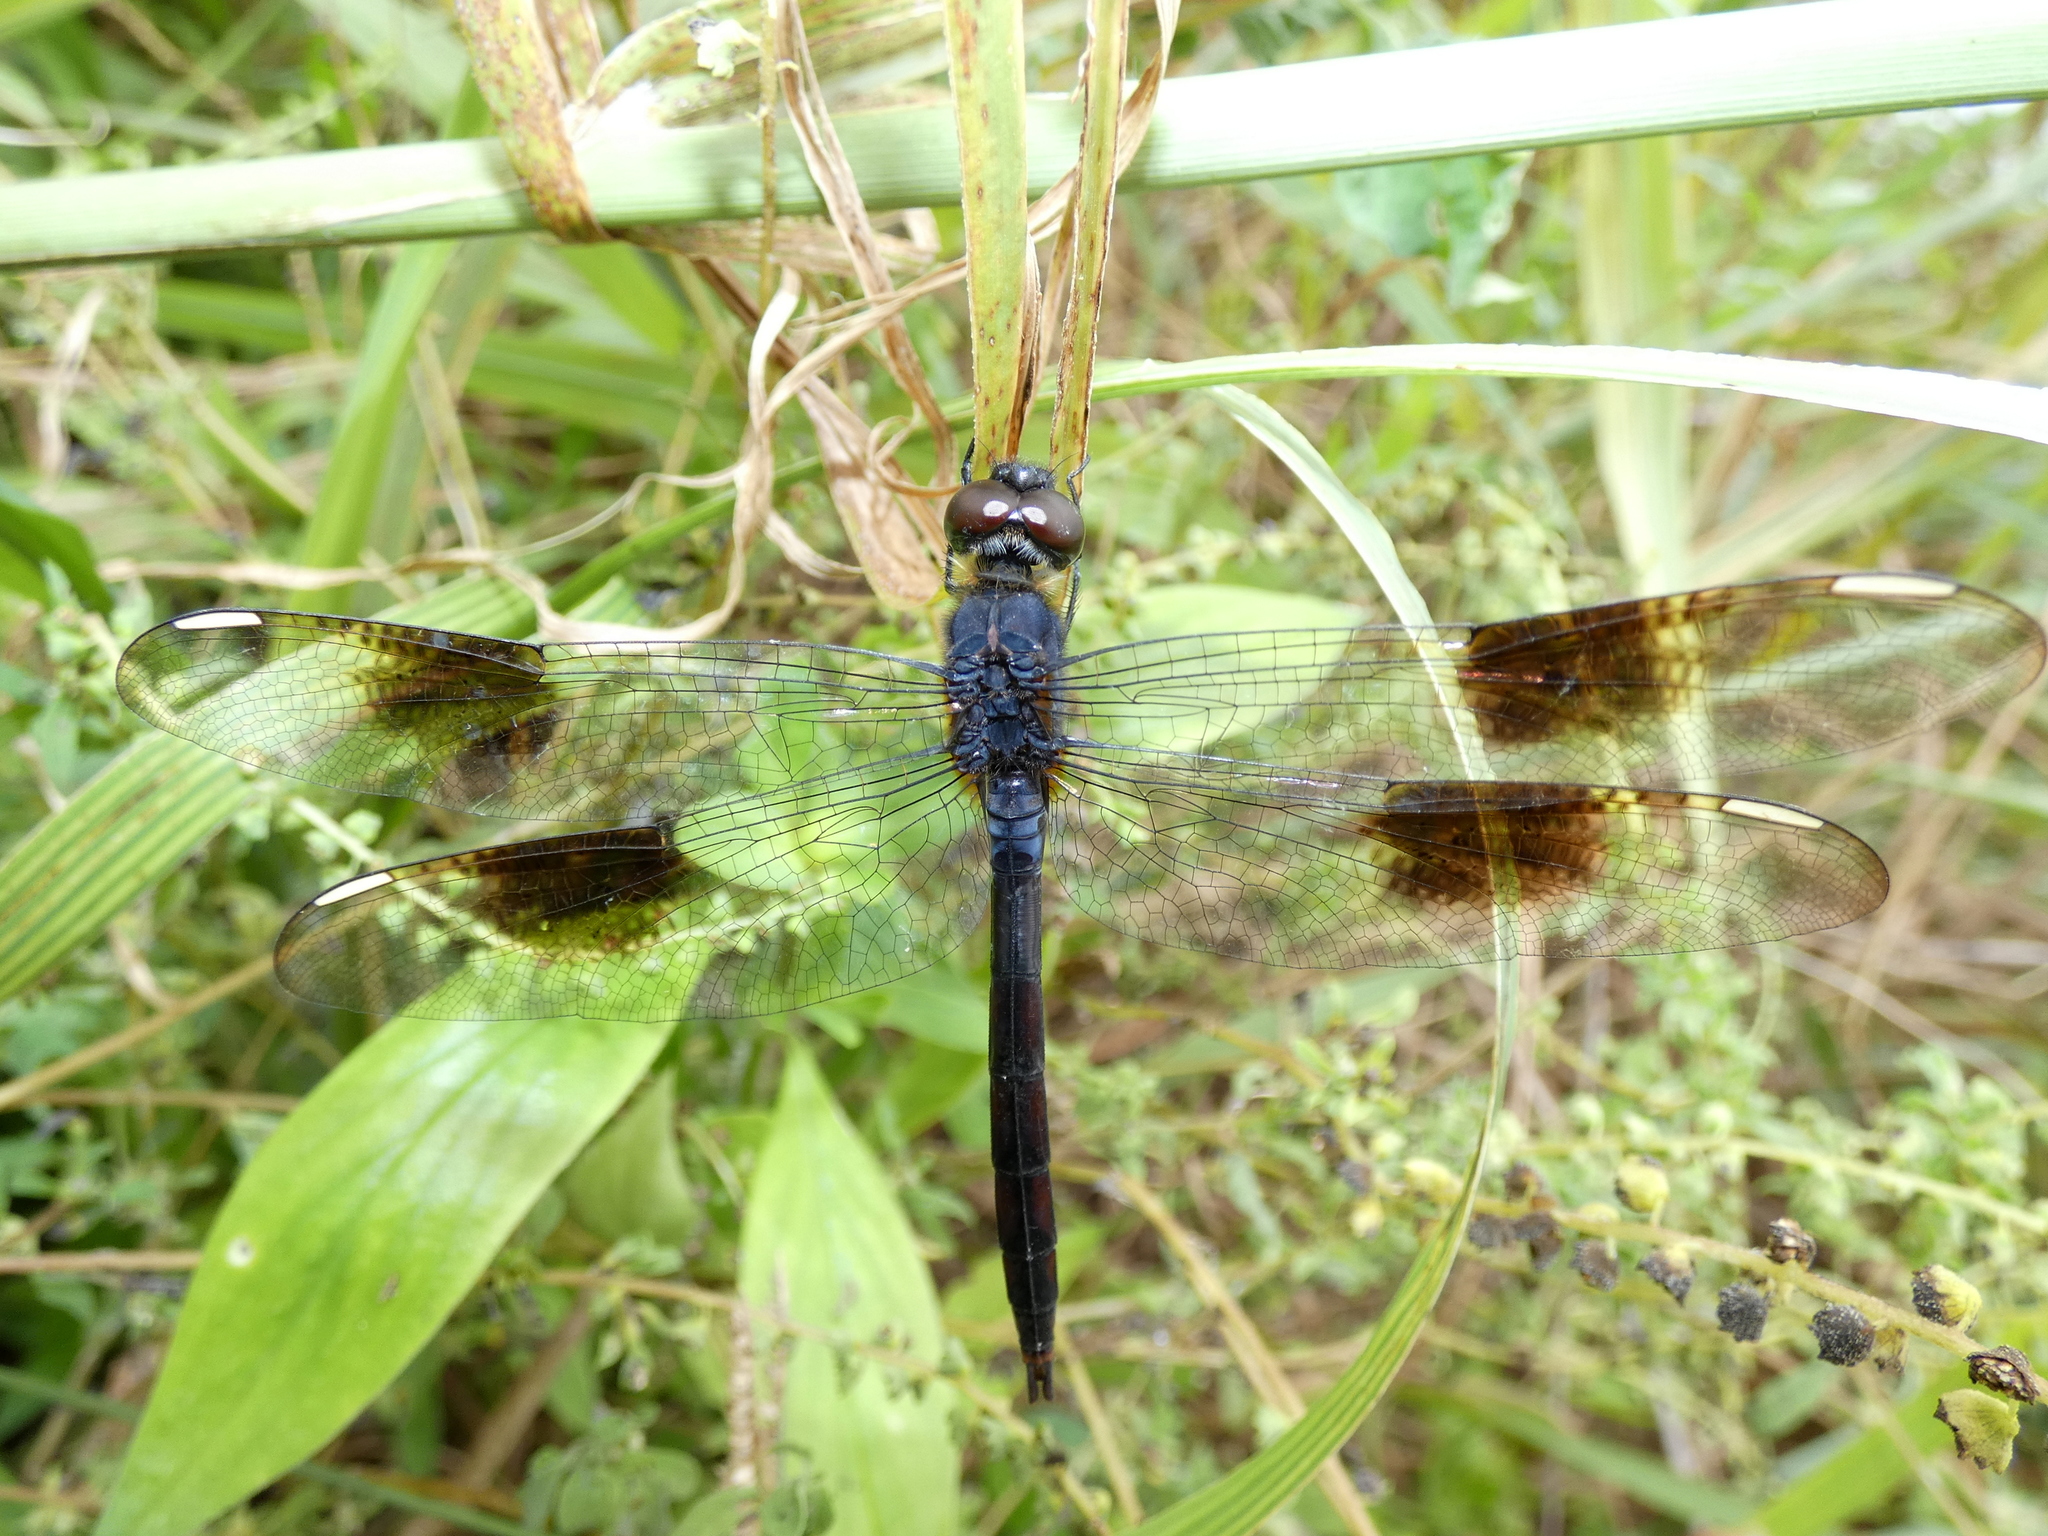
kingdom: Animalia
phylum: Arthropoda
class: Insecta
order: Odonata
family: Libellulidae
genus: Brachymesia
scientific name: Brachymesia gravida
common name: Four-spotted pennant
